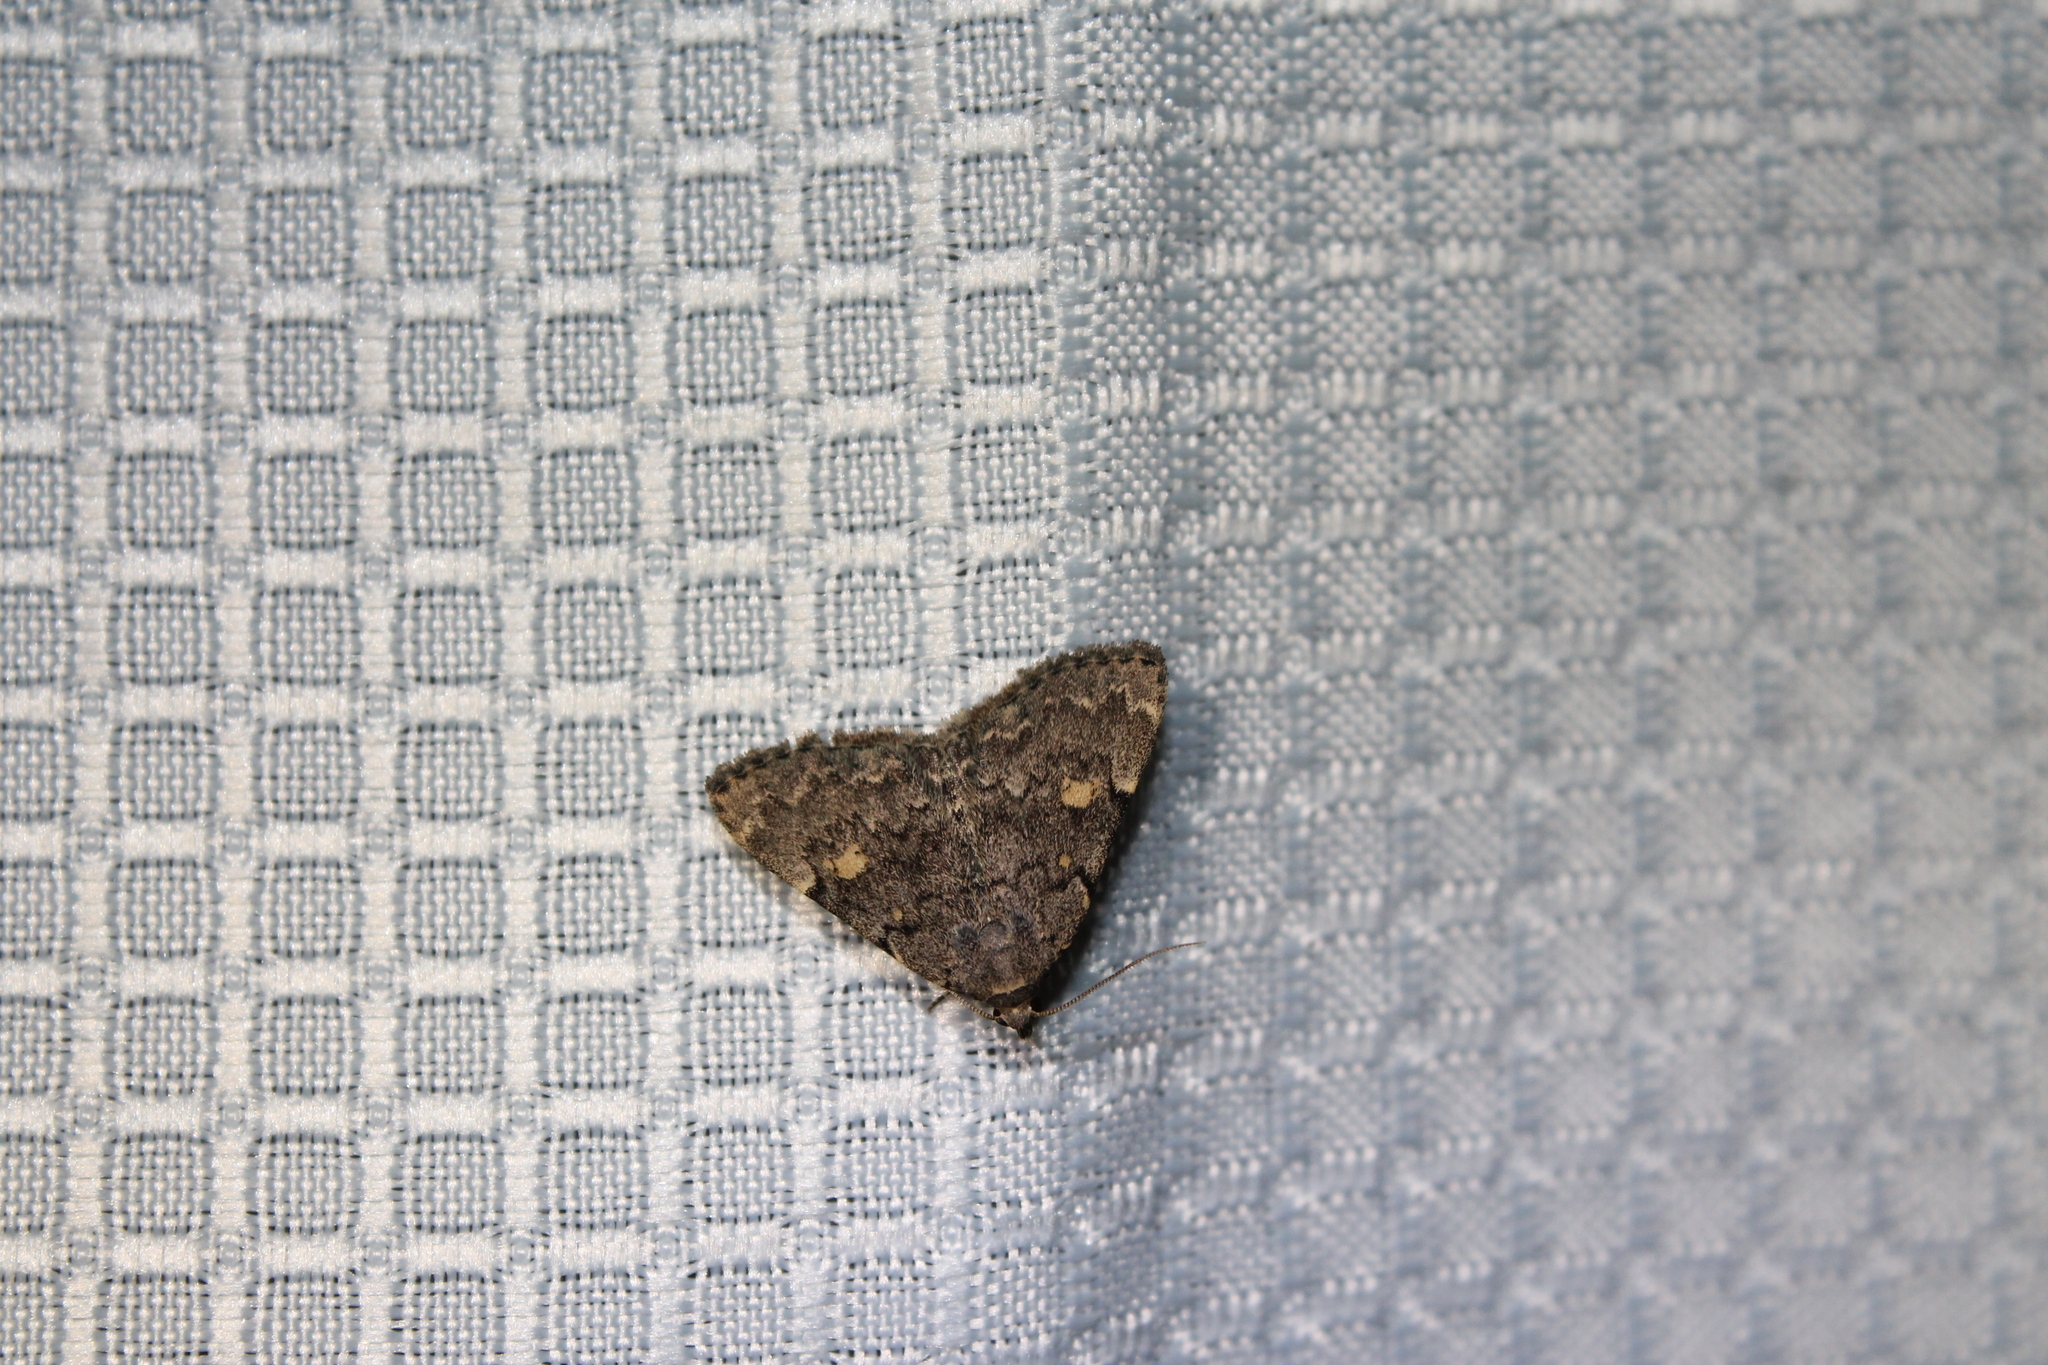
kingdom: Animalia
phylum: Arthropoda
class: Insecta
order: Lepidoptera
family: Erebidae
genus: Idia
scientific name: Idia aemula
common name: Common idia moth
